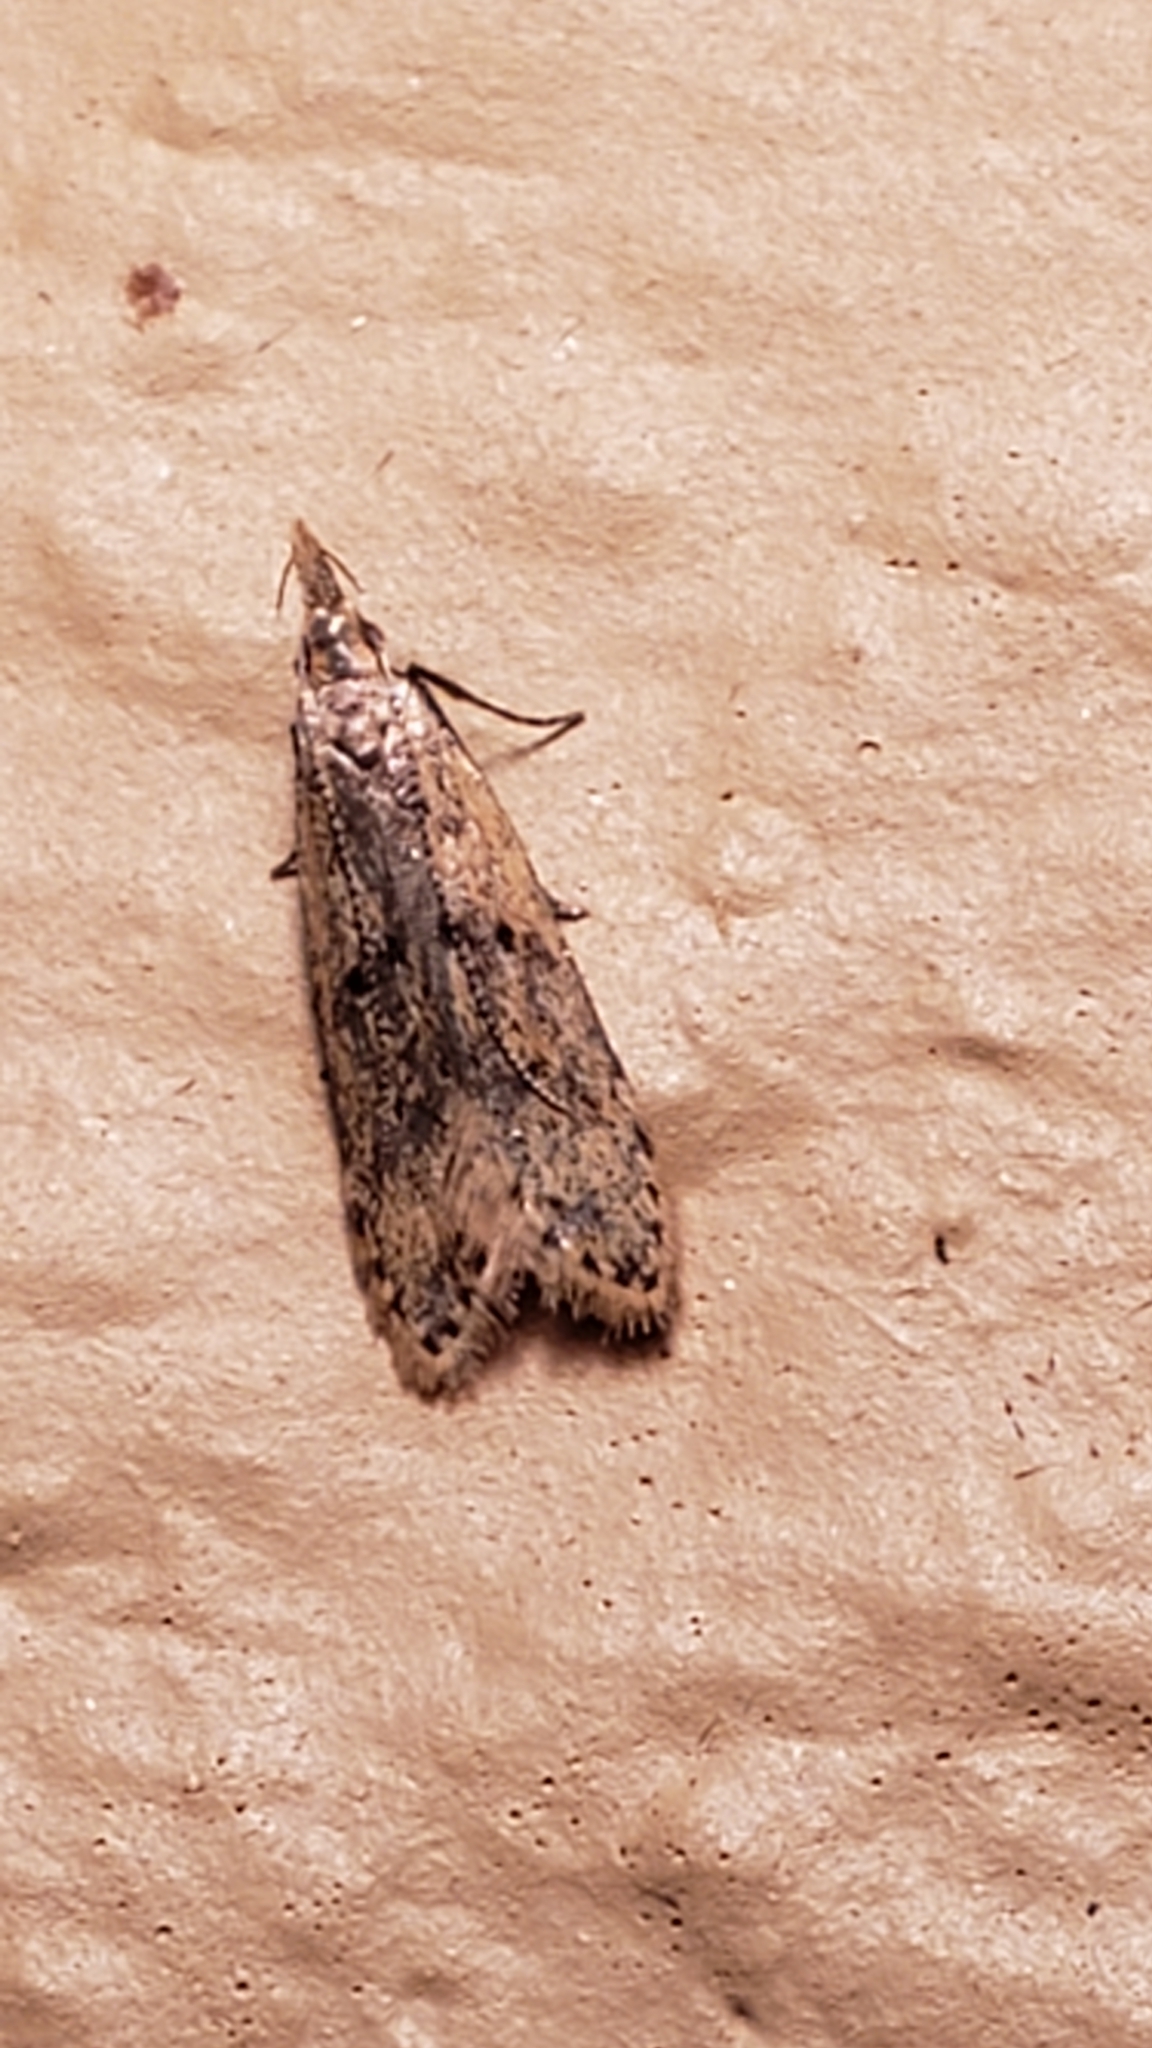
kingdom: Animalia
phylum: Arthropoda
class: Insecta
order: Lepidoptera
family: Gelechiidae
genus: Dichomeris
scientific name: Dichomeris punctipennella
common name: Many-spotted dichomeris moth
